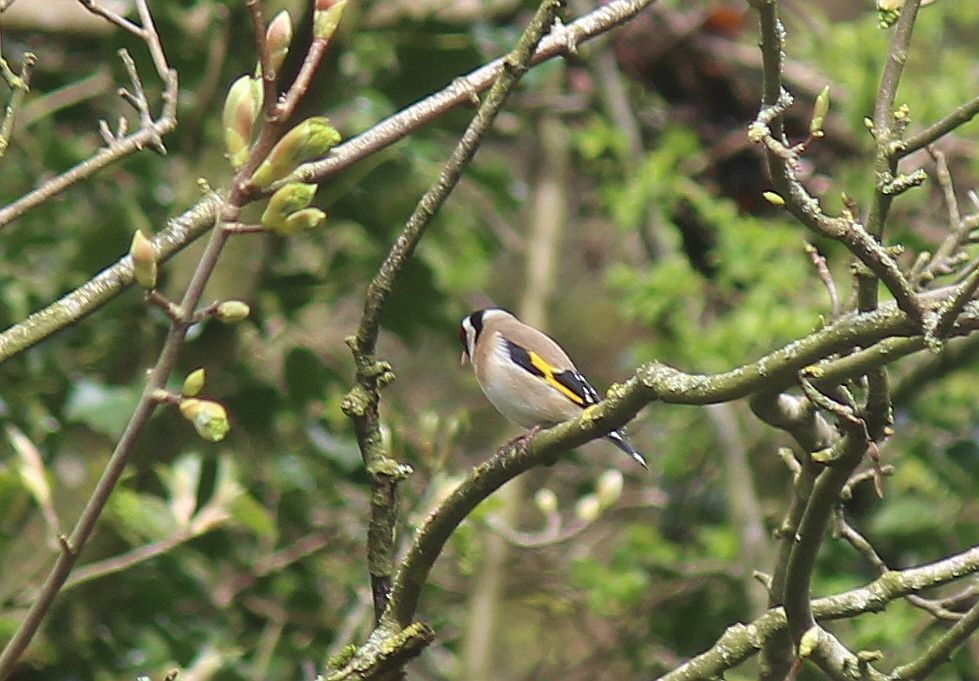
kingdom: Animalia
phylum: Chordata
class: Aves
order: Passeriformes
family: Fringillidae
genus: Carduelis
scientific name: Carduelis carduelis
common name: European goldfinch
